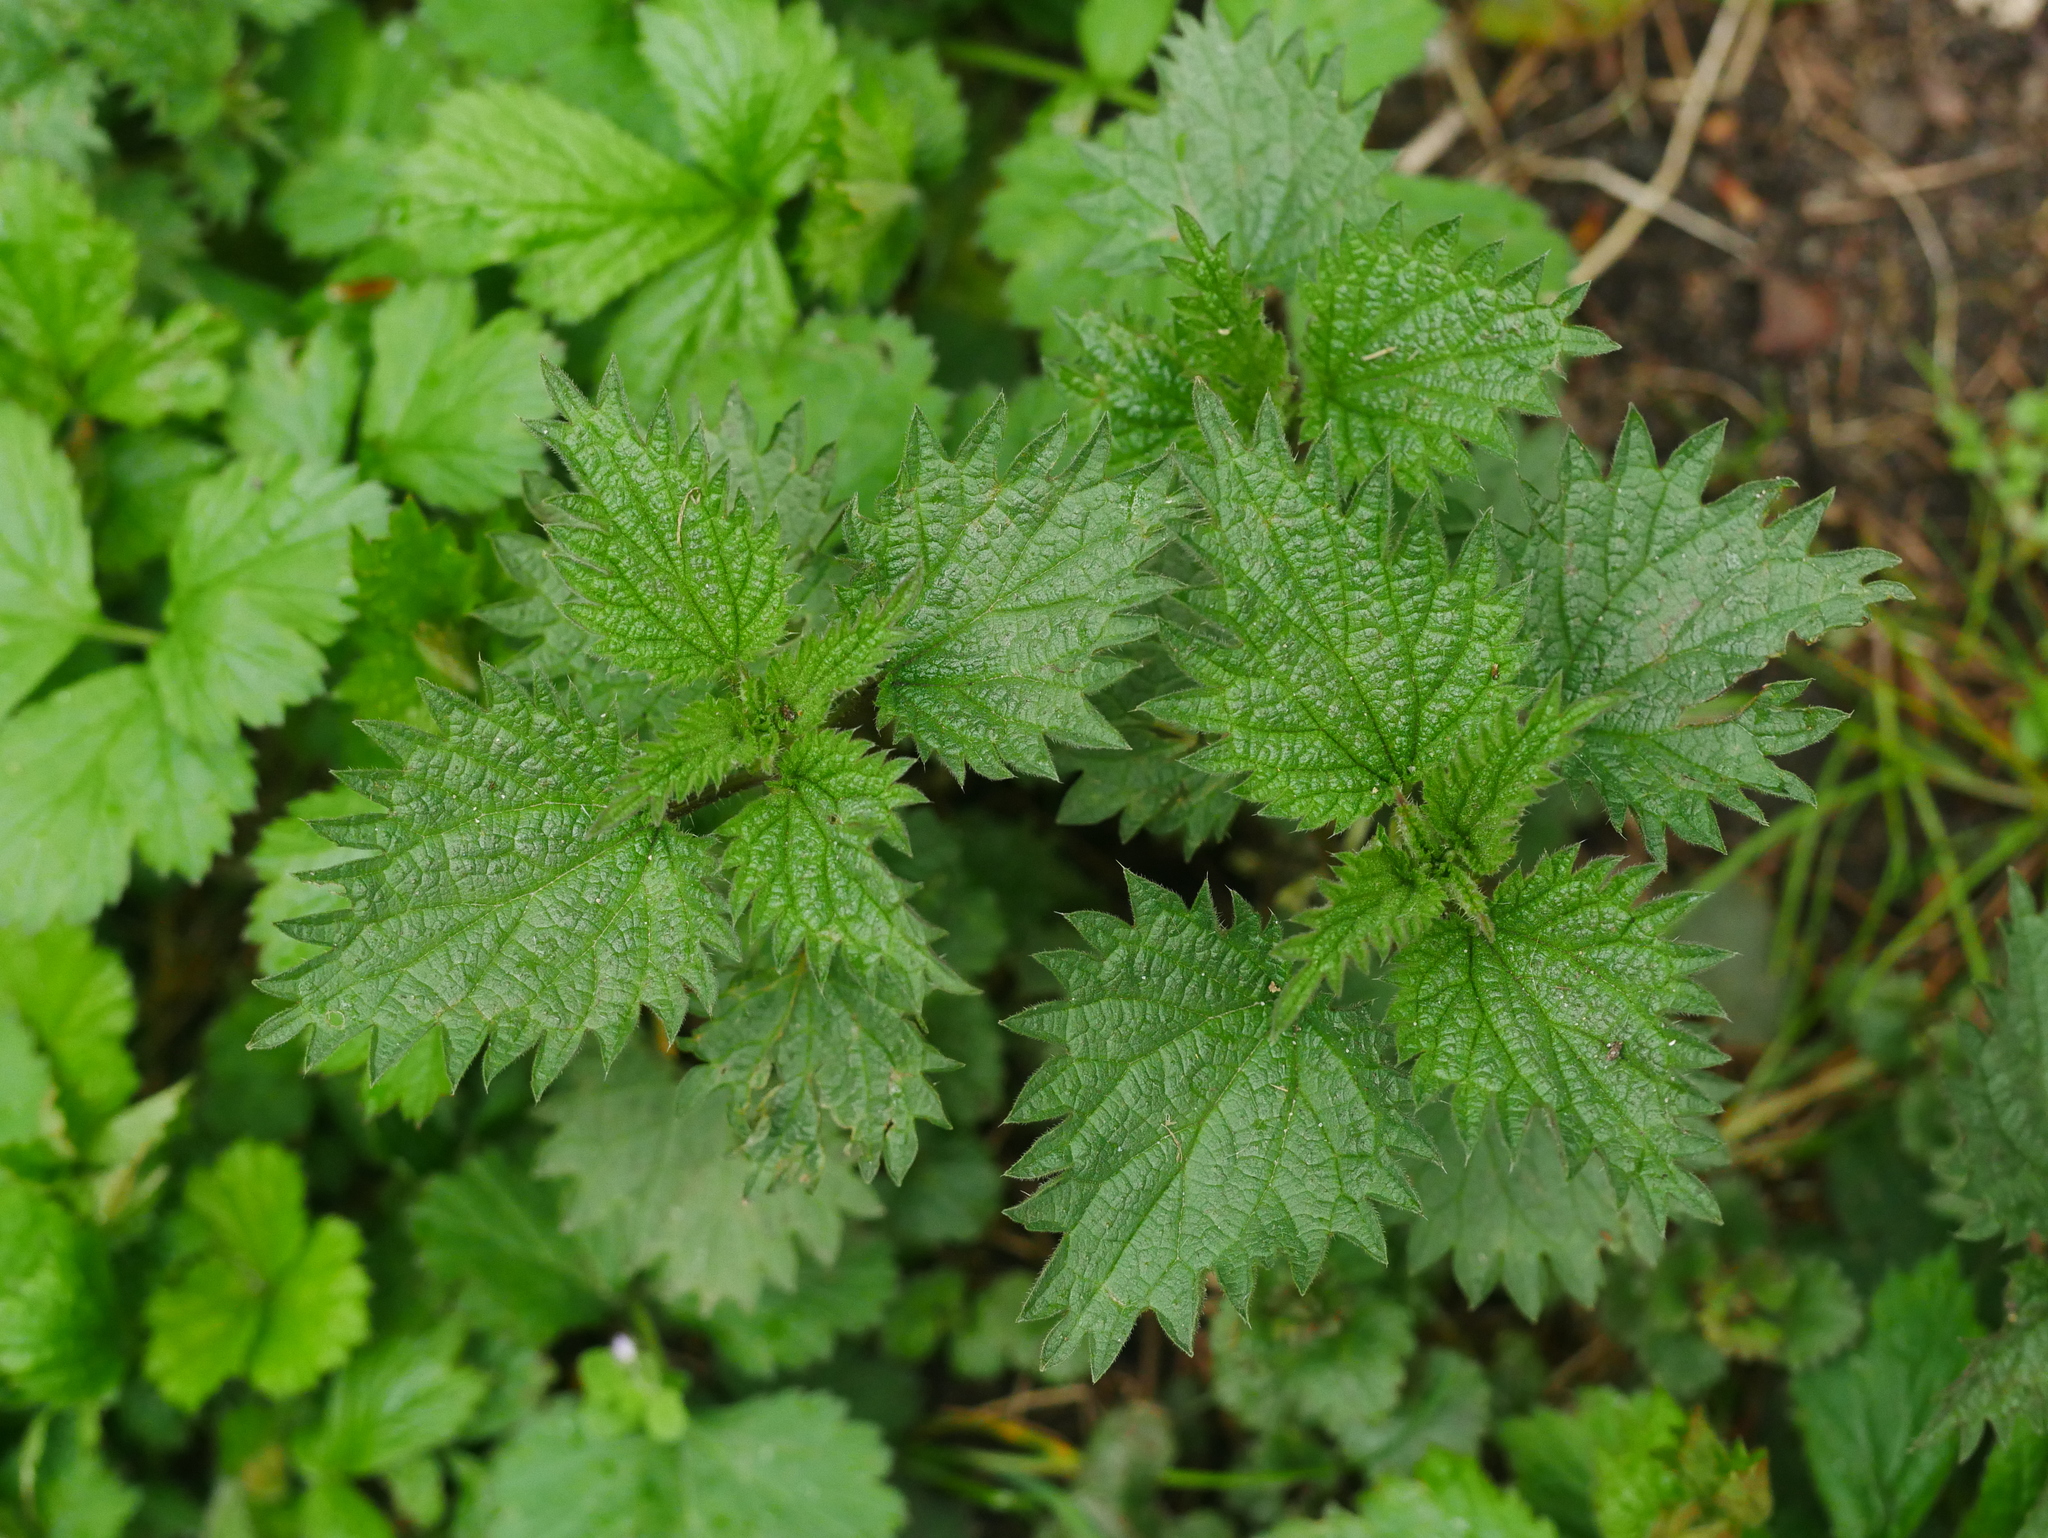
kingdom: Plantae
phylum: Tracheophyta
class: Magnoliopsida
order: Rosales
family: Urticaceae
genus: Urtica
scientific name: Urtica dioica
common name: Common nettle
